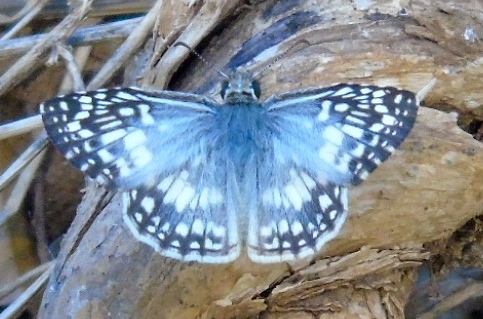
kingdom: Animalia
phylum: Arthropoda
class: Insecta
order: Lepidoptera
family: Hesperiidae
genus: Burnsius
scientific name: Burnsius
